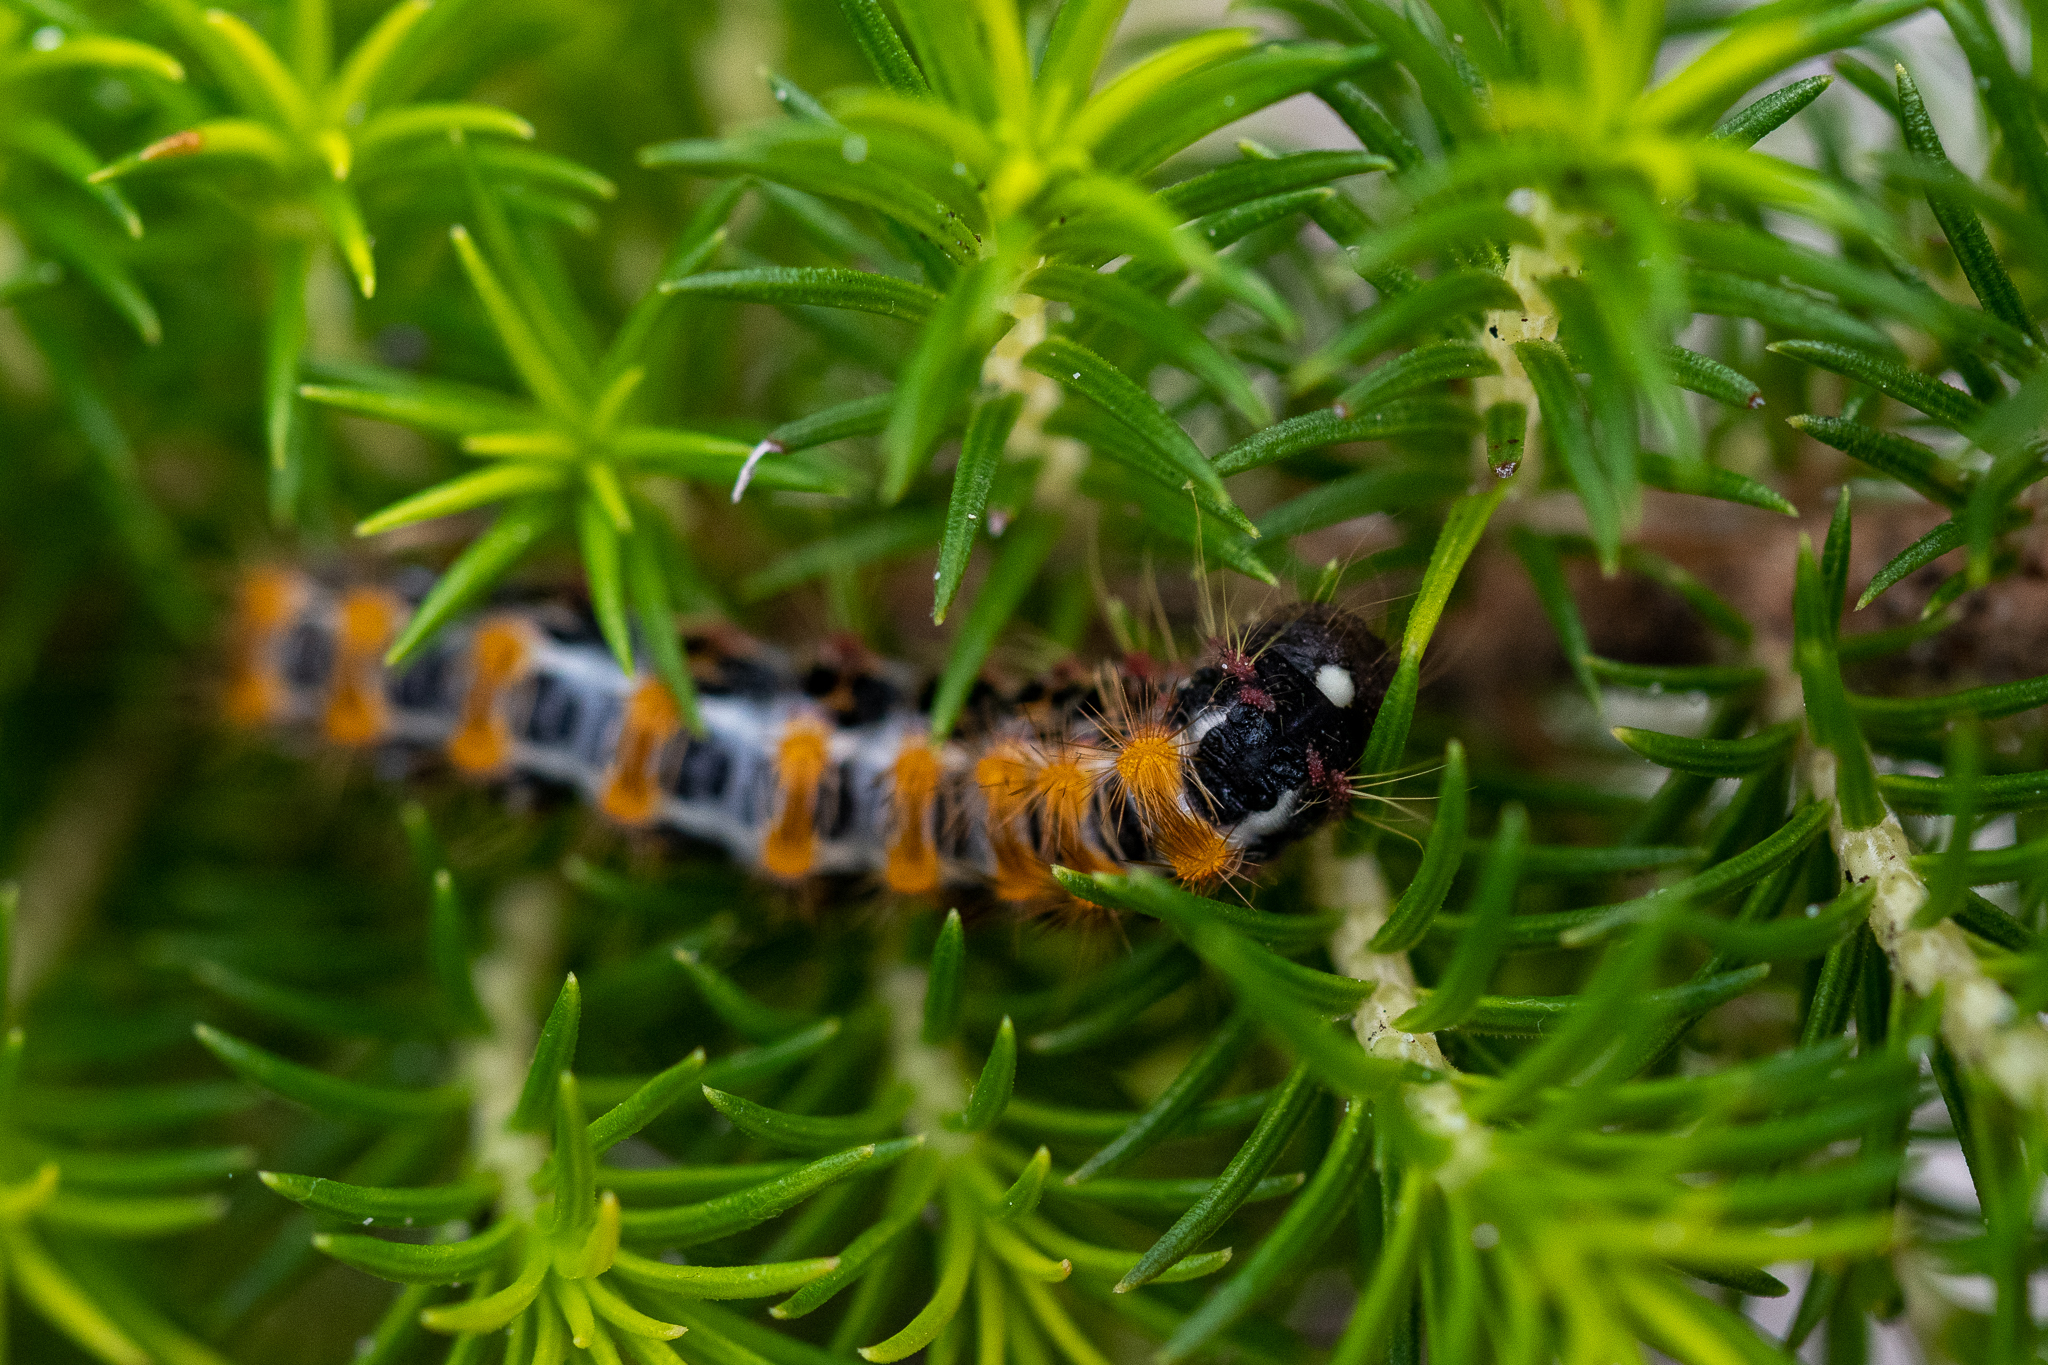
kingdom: Animalia
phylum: Arthropoda
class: Insecta
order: Lepidoptera
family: Somabrachyidae
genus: Psycharium
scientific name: Psycharium pellucens
